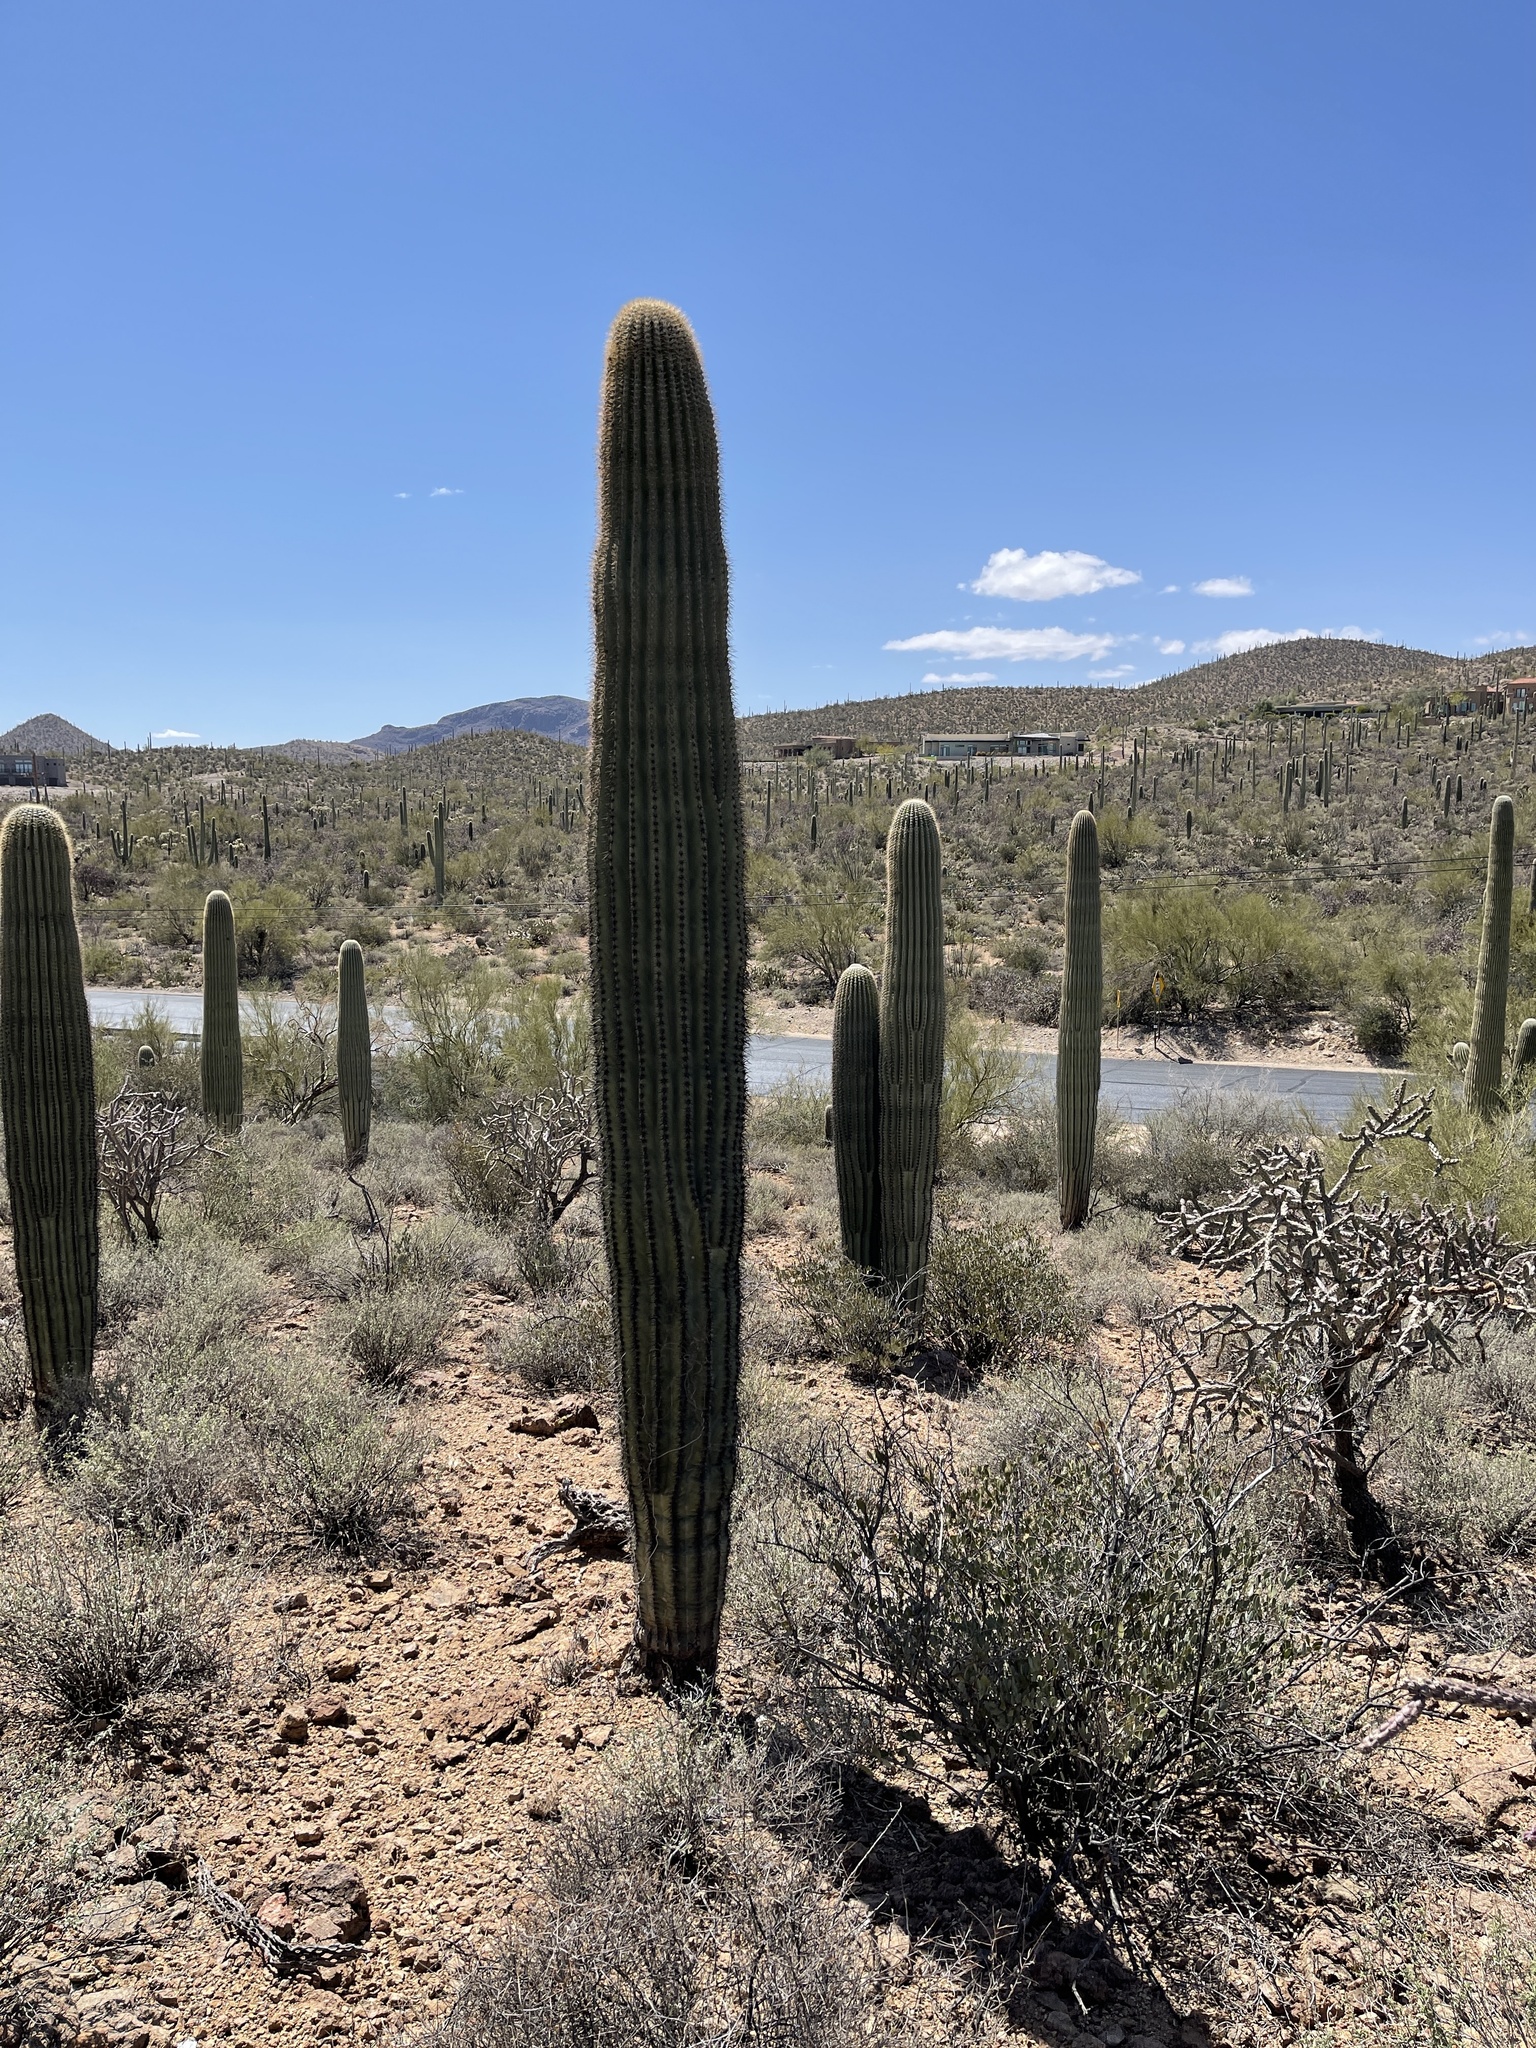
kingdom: Plantae
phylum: Tracheophyta
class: Magnoliopsida
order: Caryophyllales
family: Cactaceae
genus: Carnegiea
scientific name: Carnegiea gigantea
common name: Saguaro
